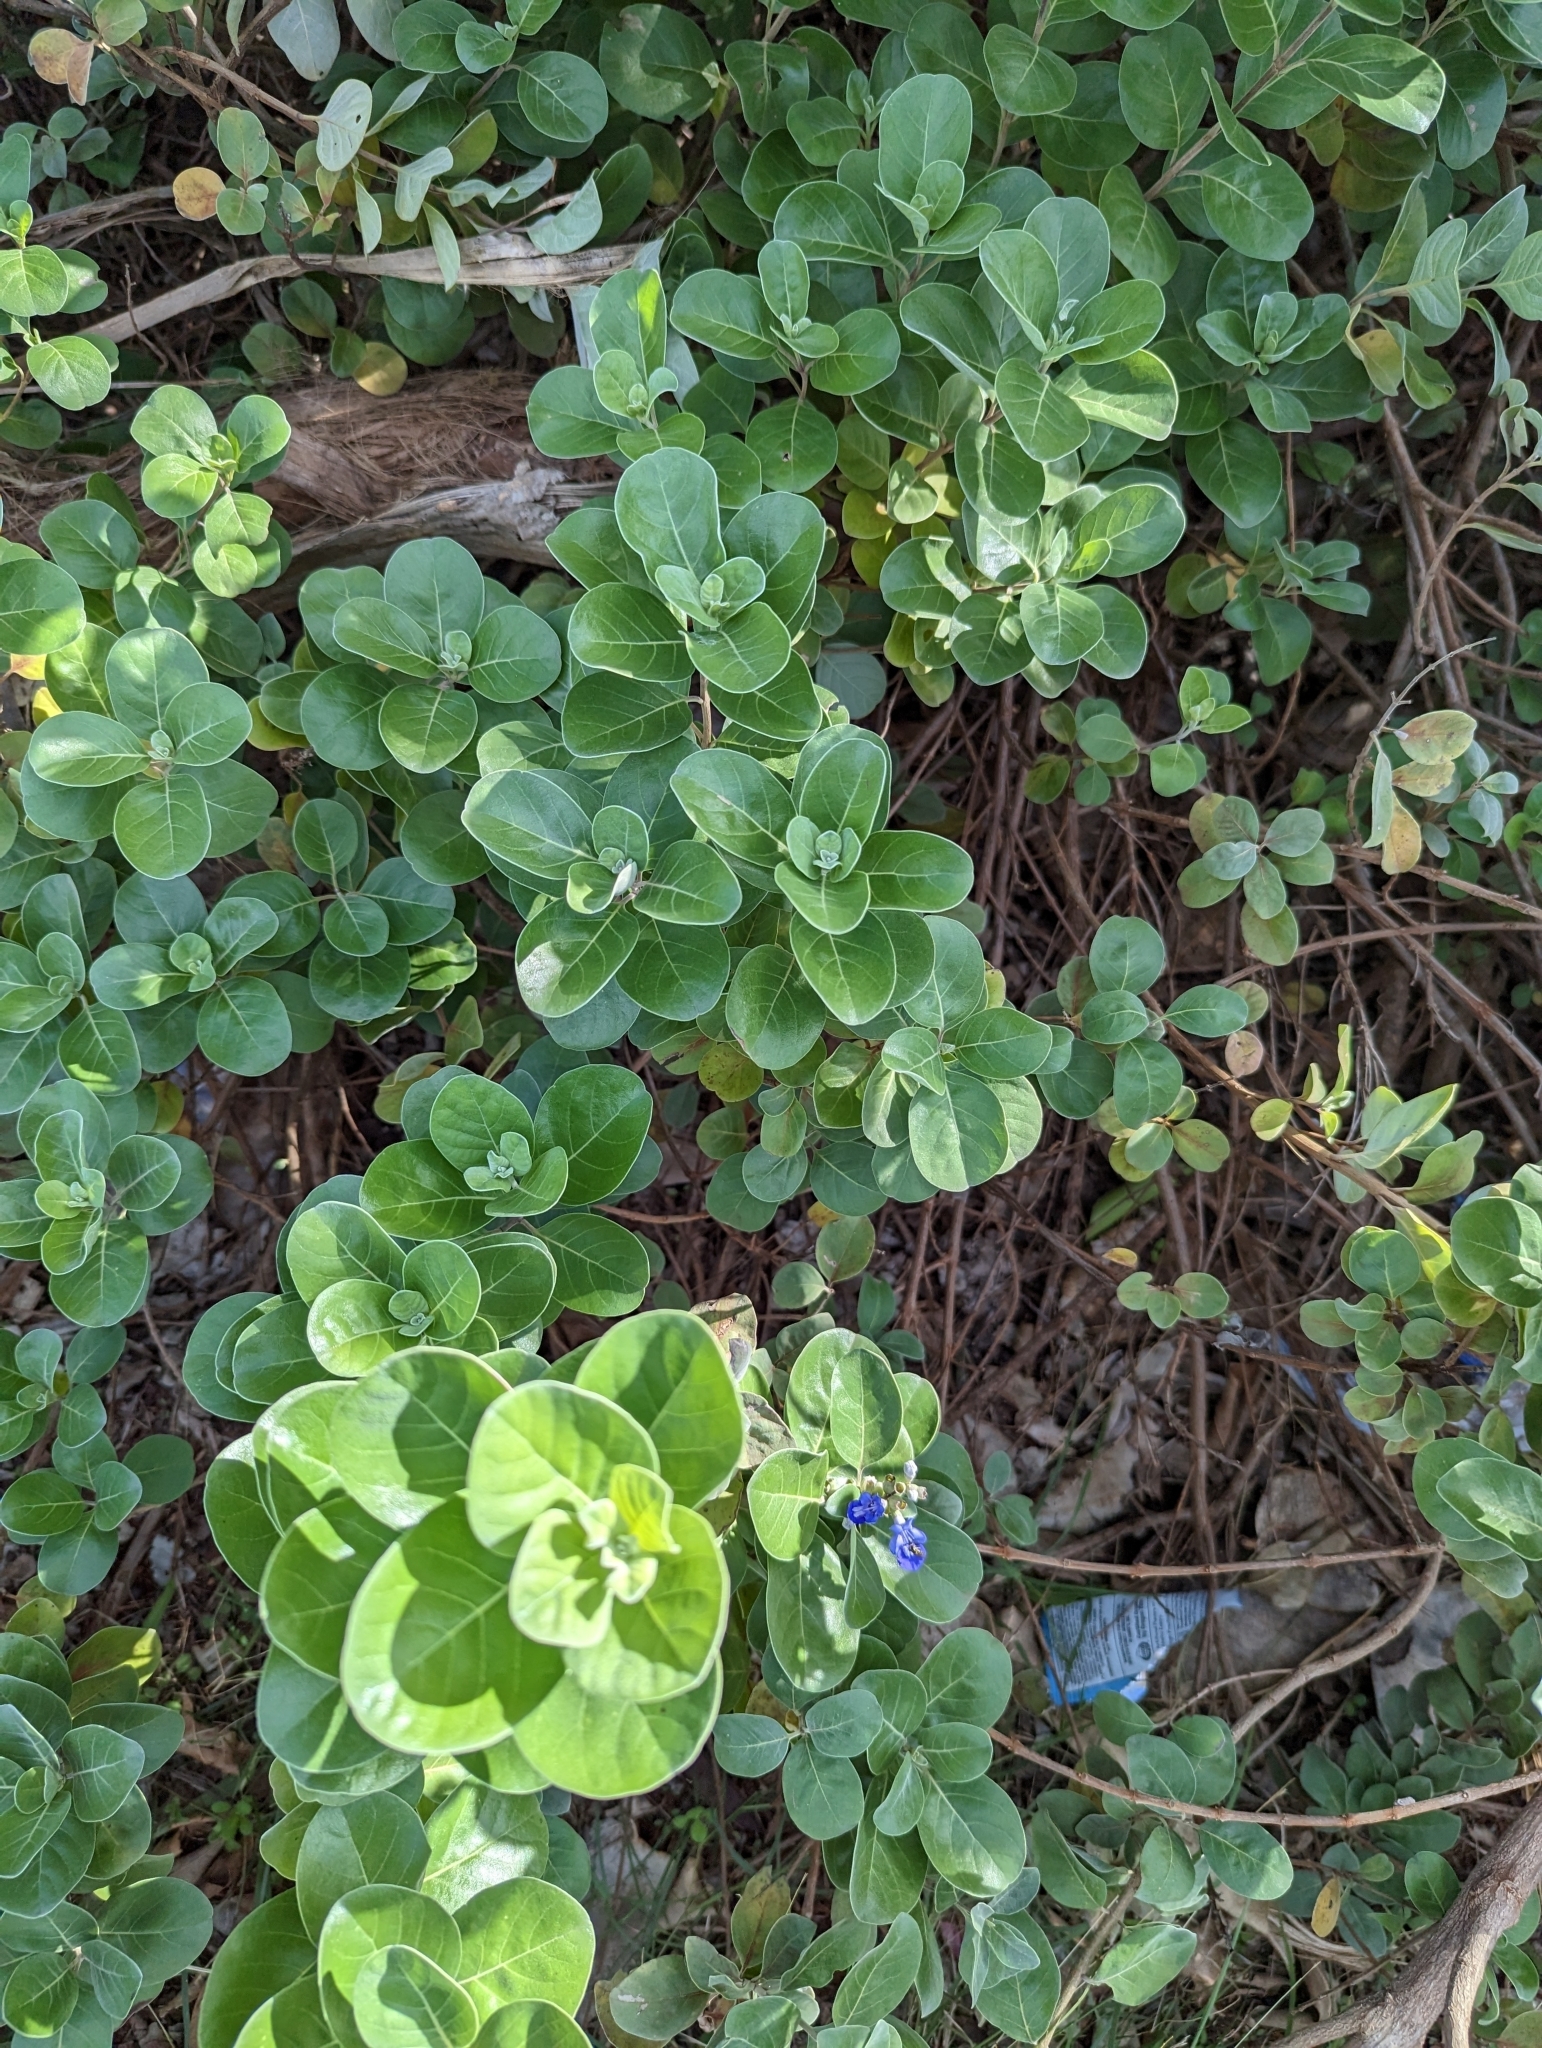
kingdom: Plantae
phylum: Tracheophyta
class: Magnoliopsida
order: Lamiales
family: Lamiaceae
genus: Vitex
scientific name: Vitex rotundifolia
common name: Beach vitex
